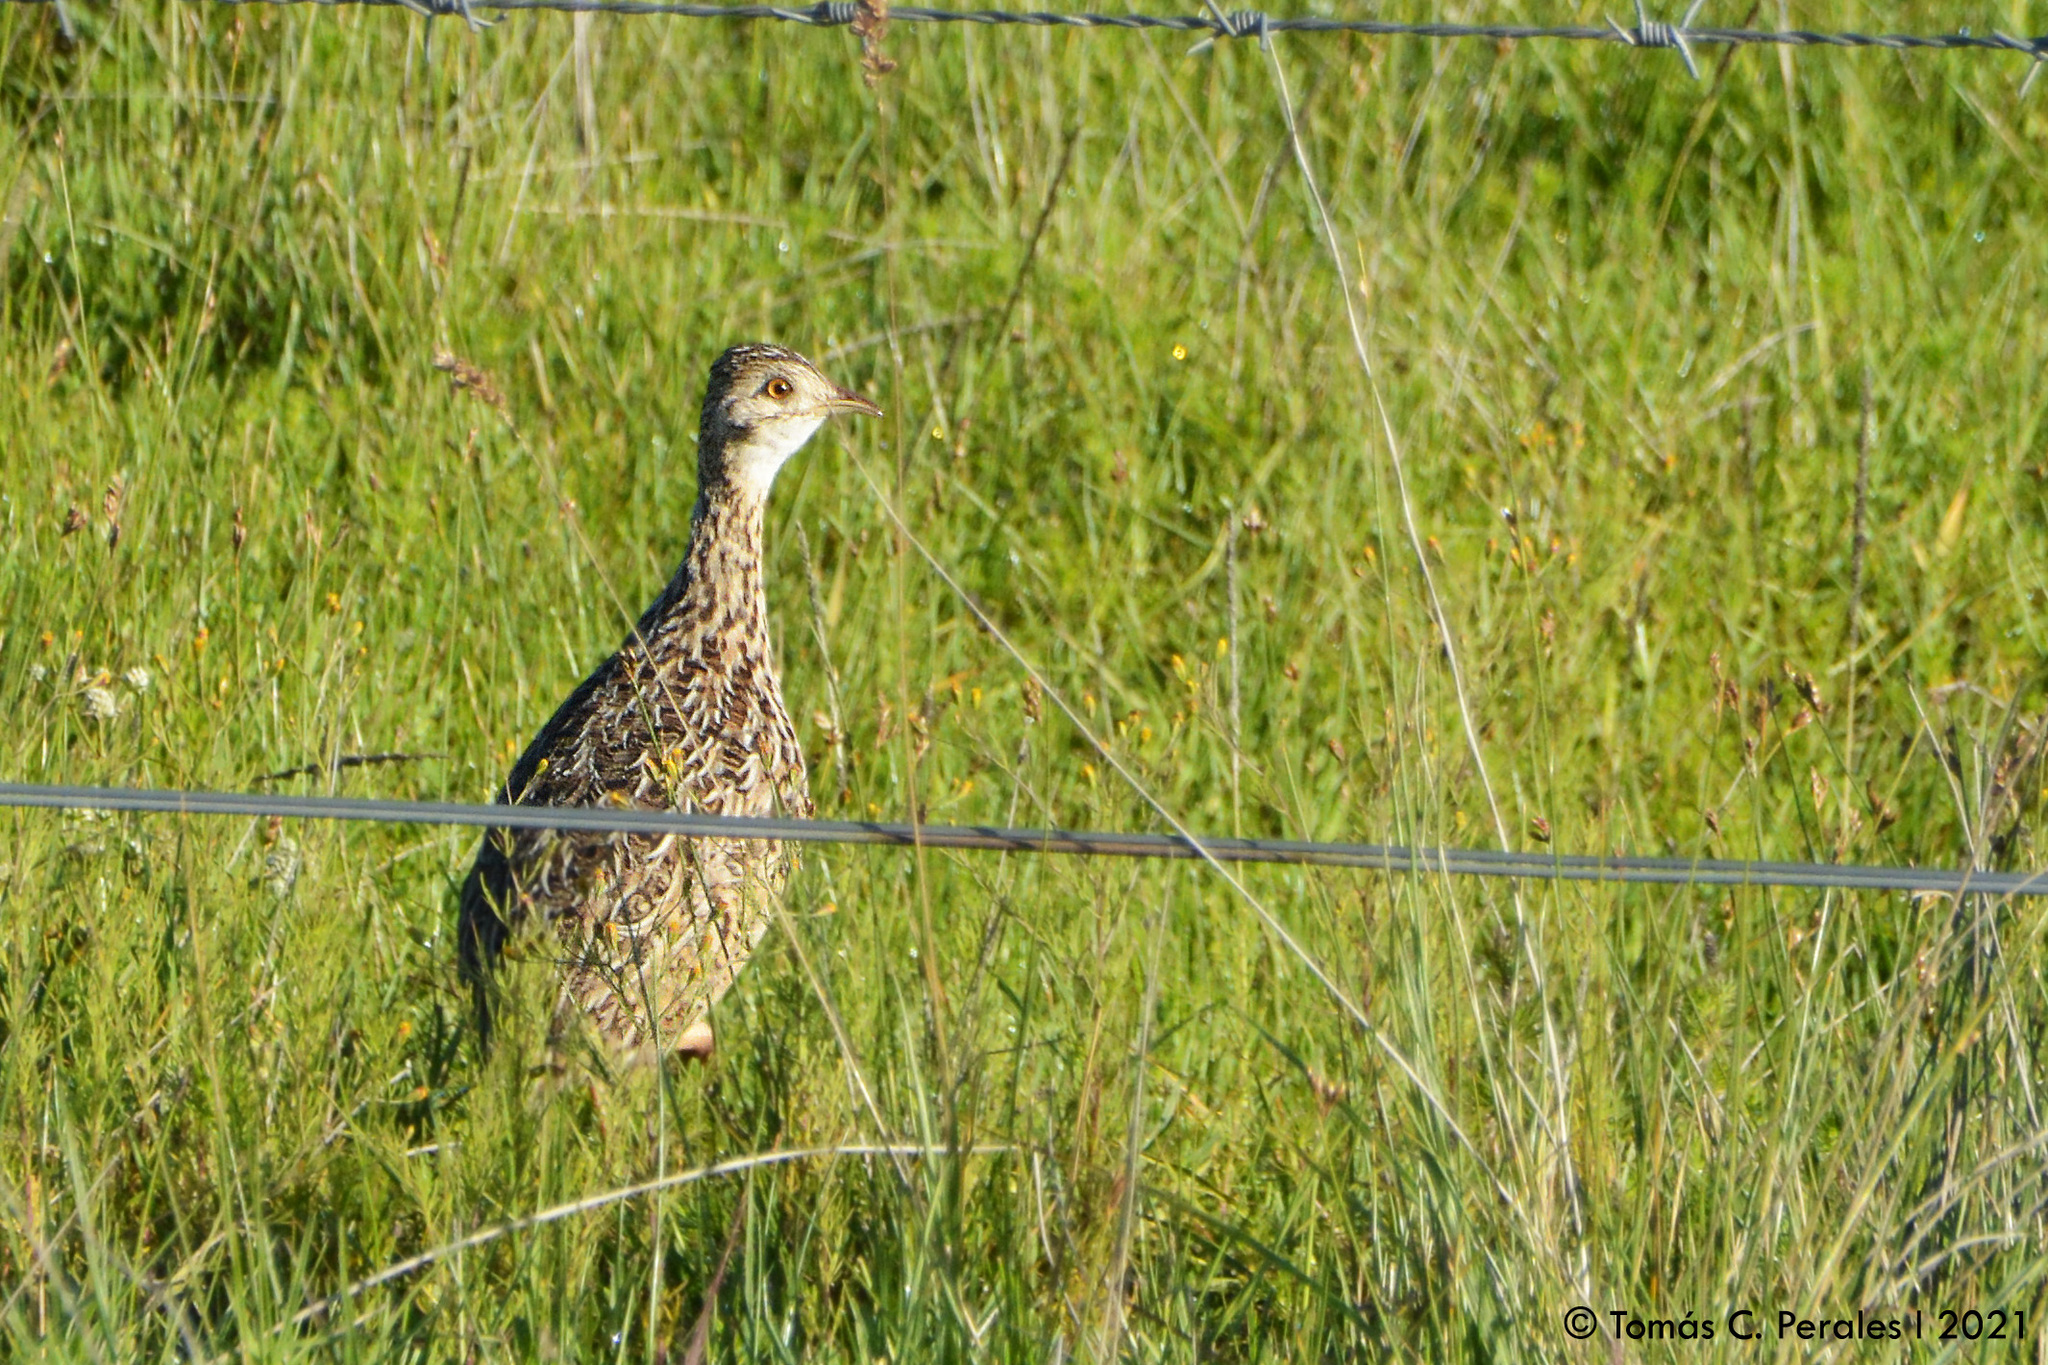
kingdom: Animalia
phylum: Chordata
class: Aves
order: Tinamiformes
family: Tinamidae
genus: Nothura
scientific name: Nothura maculosa
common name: Spotted nothura
